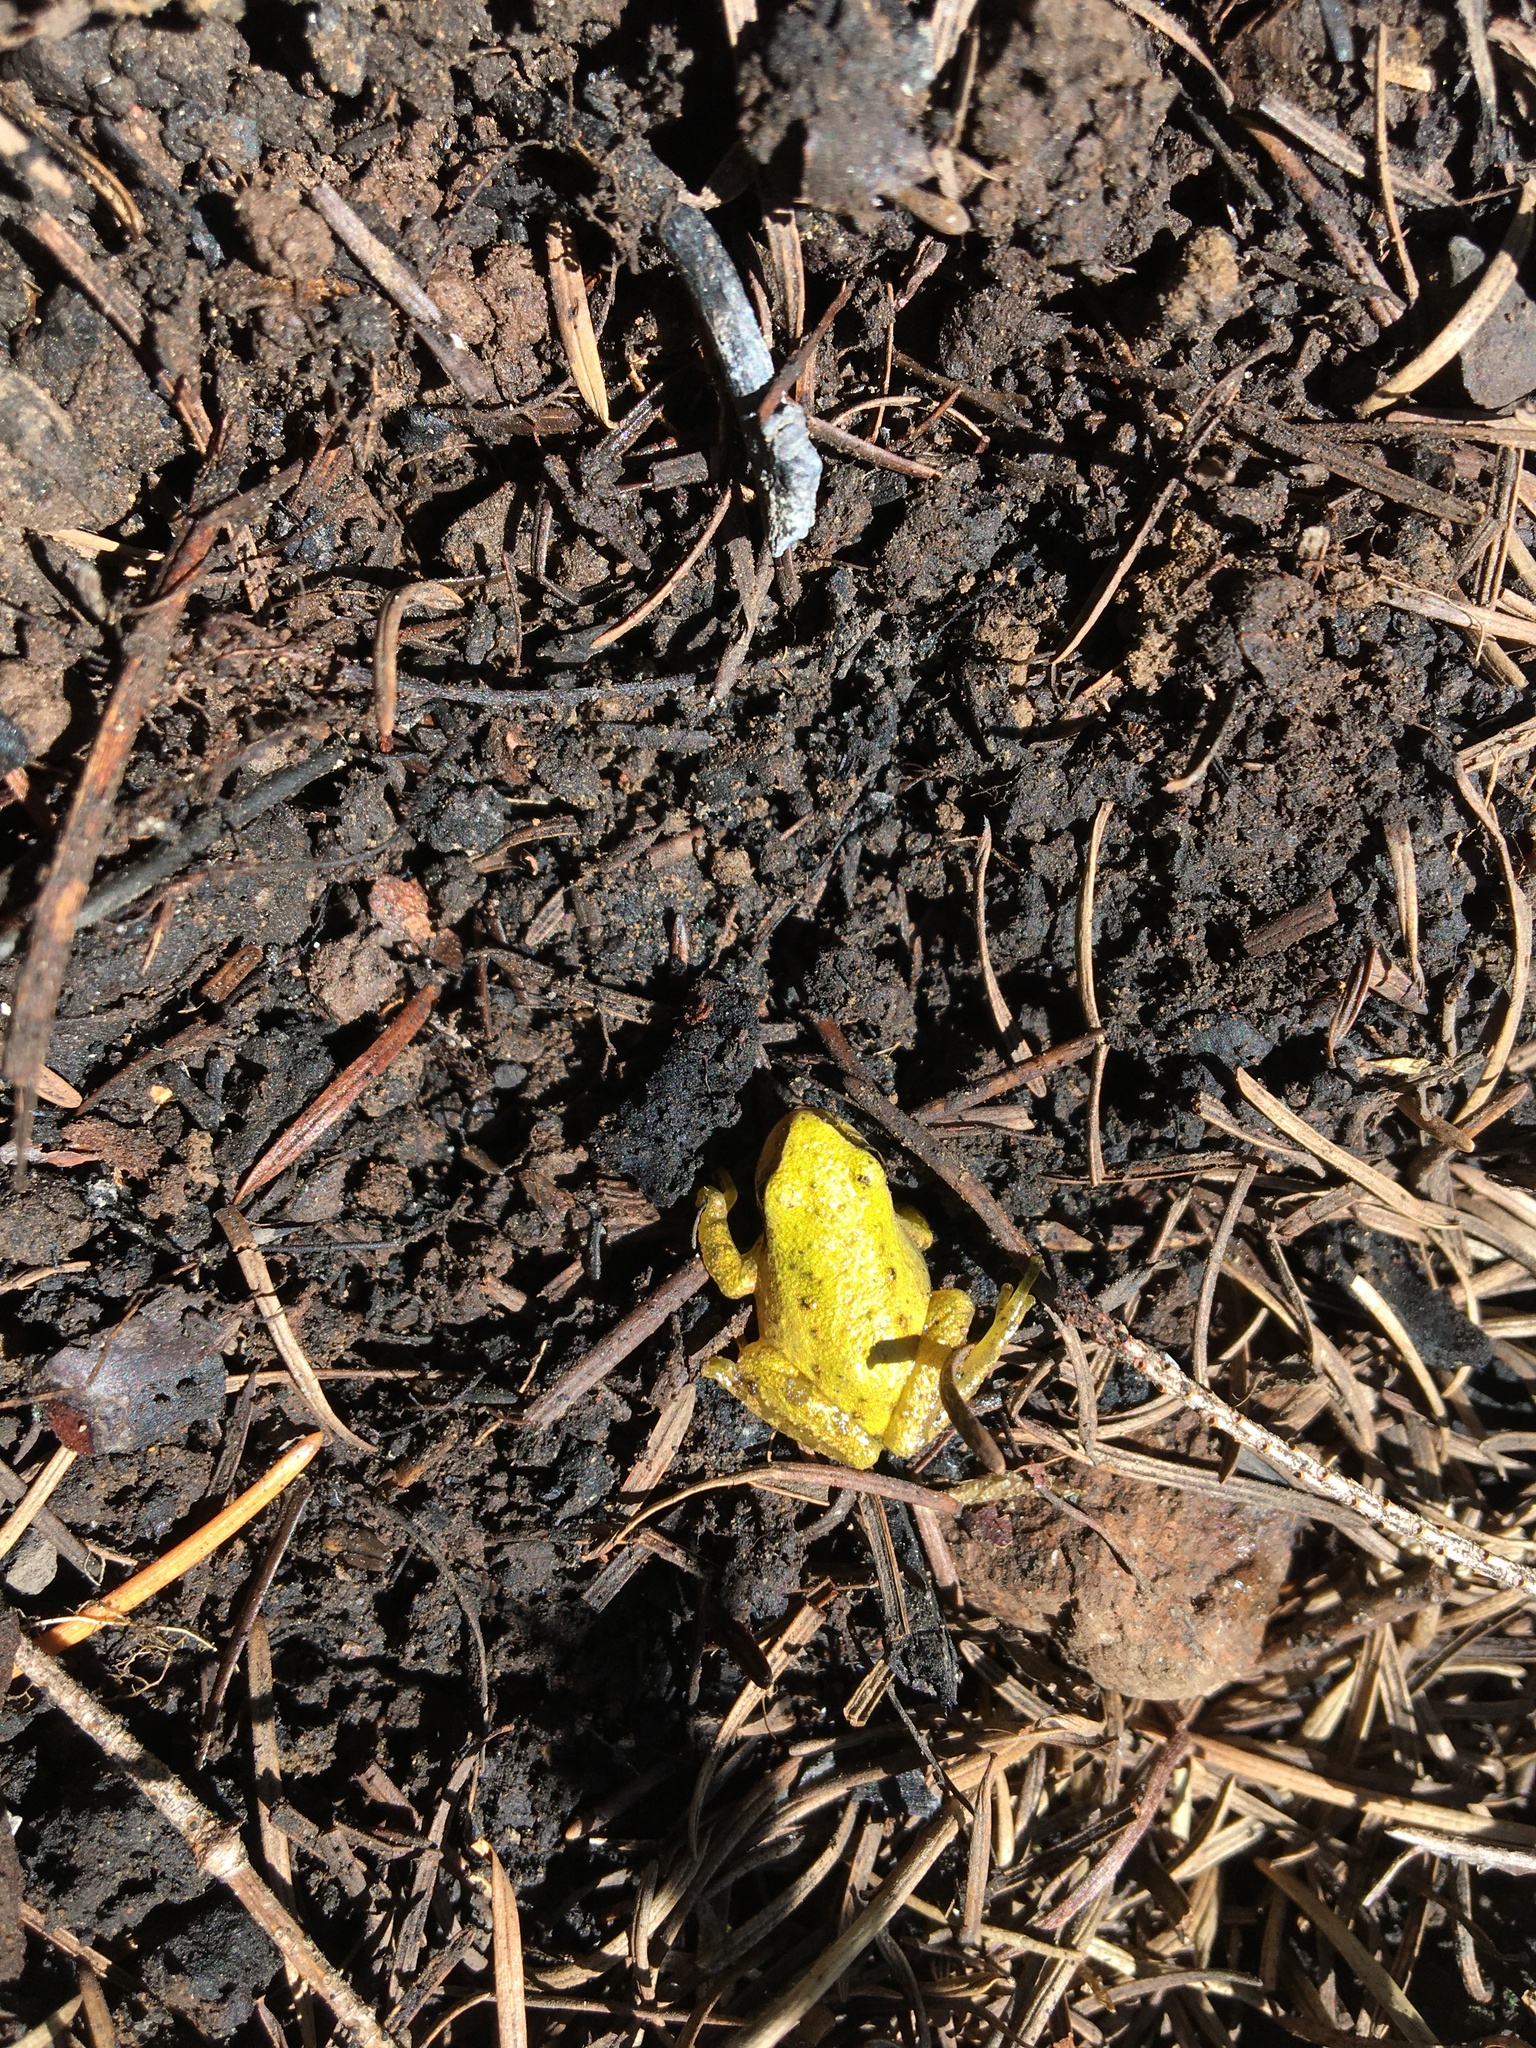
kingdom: Animalia
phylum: Chordata
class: Amphibia
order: Anura
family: Hylidae
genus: Pseudacris
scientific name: Pseudacris regilla
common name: Pacific chorus frog
